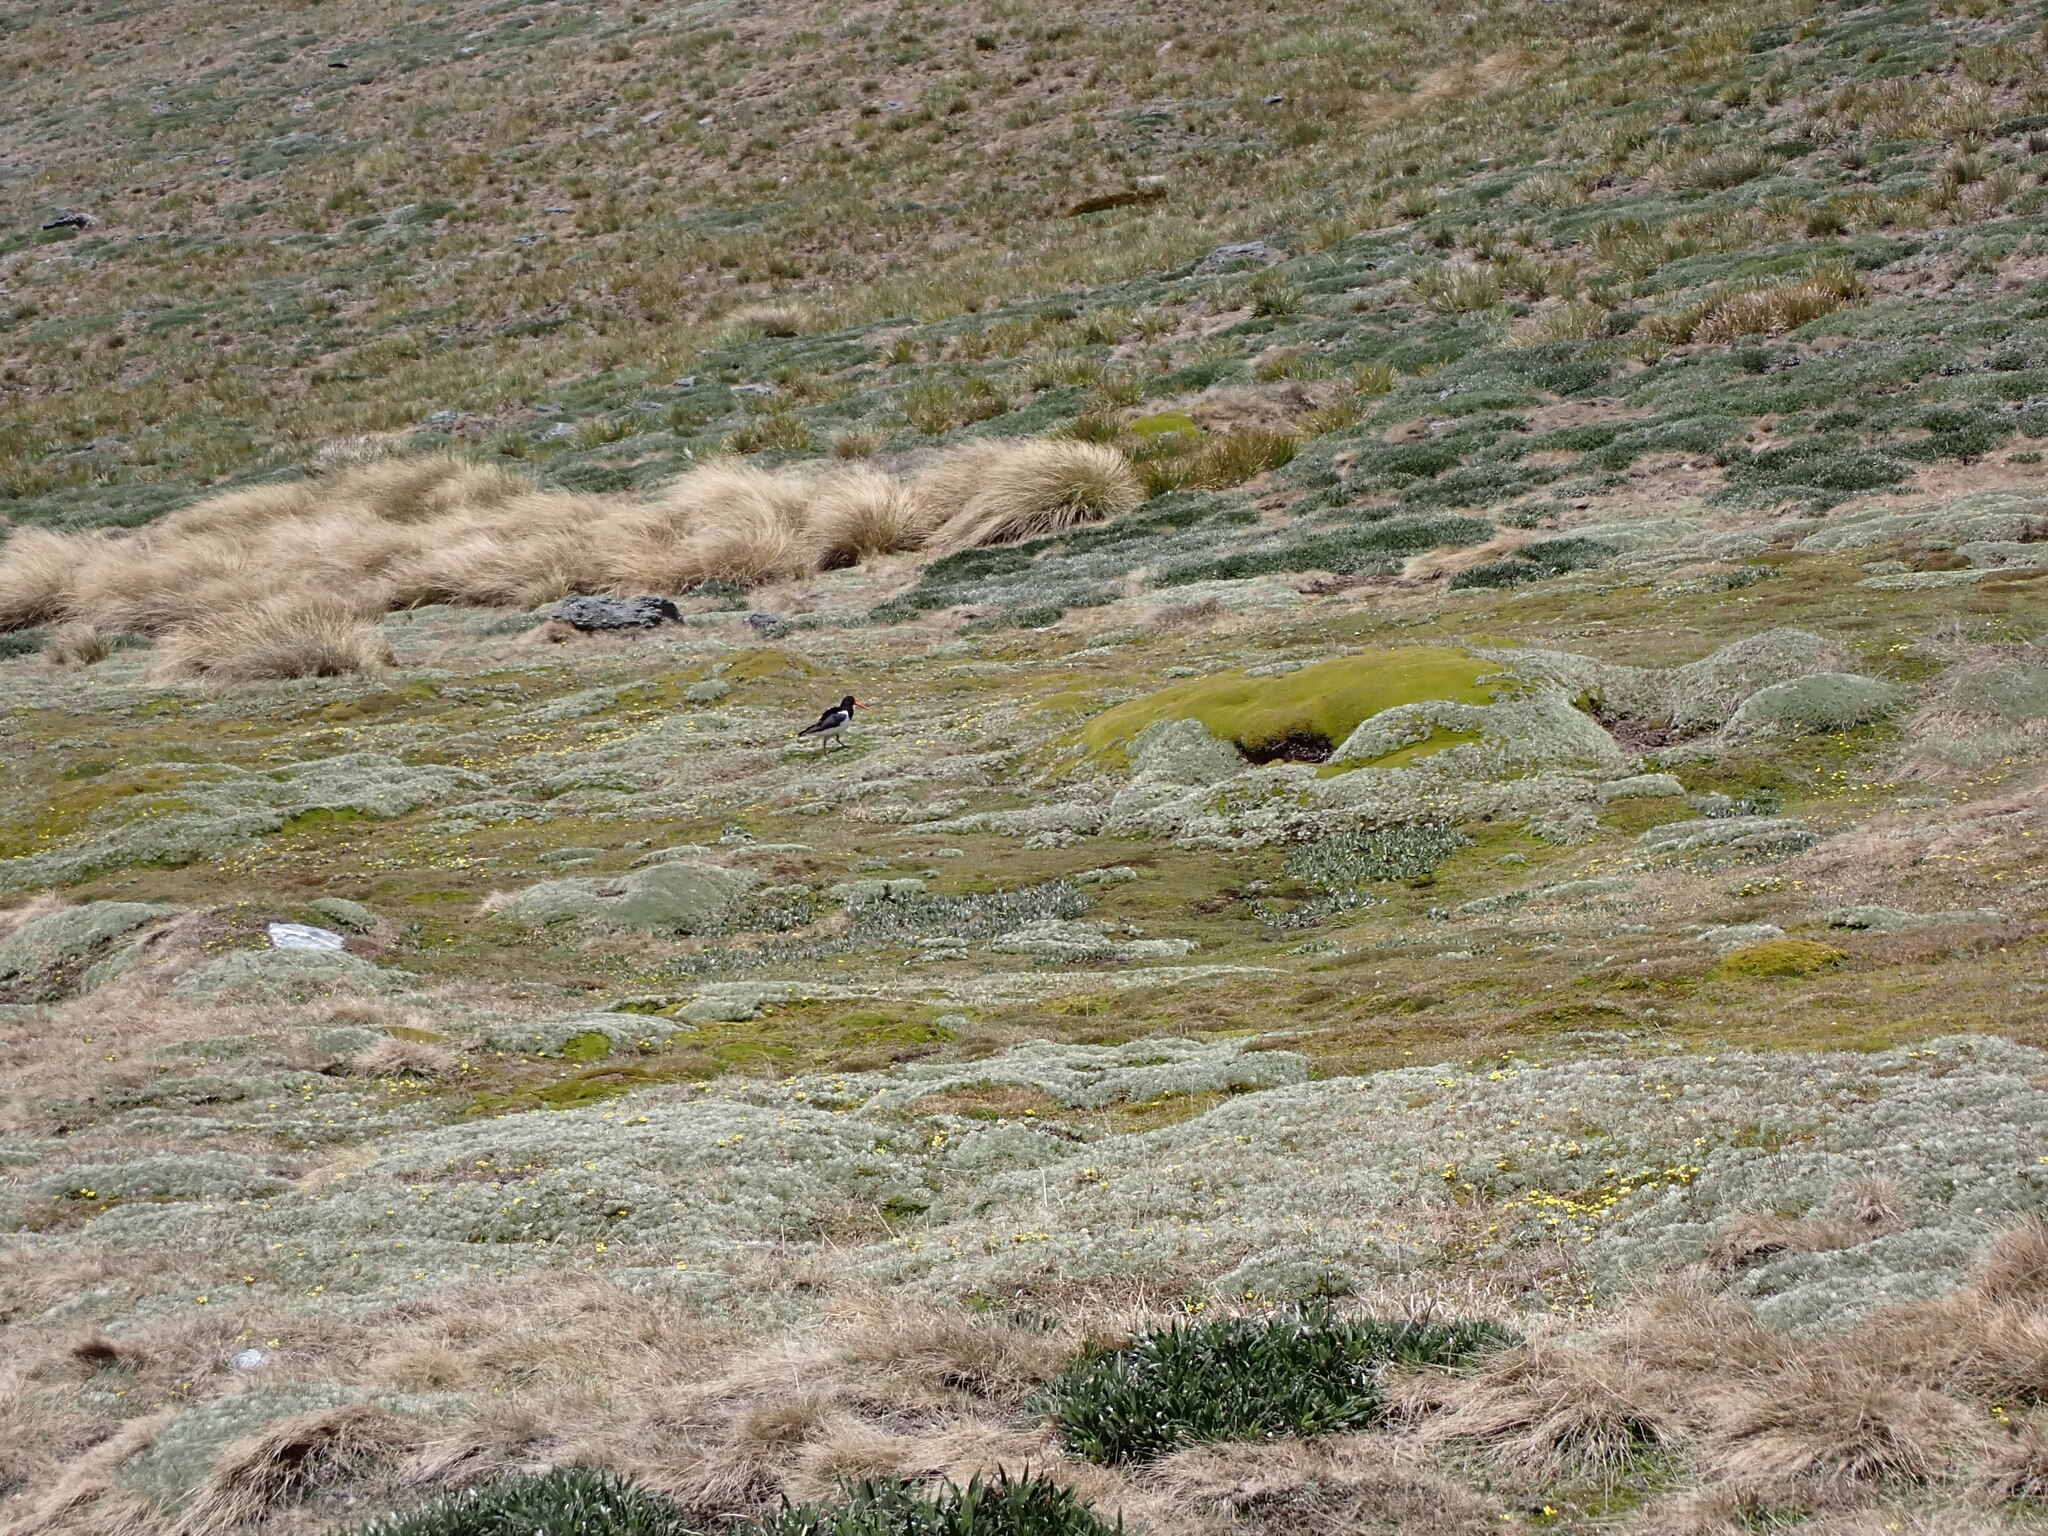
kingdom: Animalia
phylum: Chordata
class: Aves
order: Charadriiformes
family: Haematopodidae
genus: Haematopus
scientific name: Haematopus finschi
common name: South island oystercatcher
